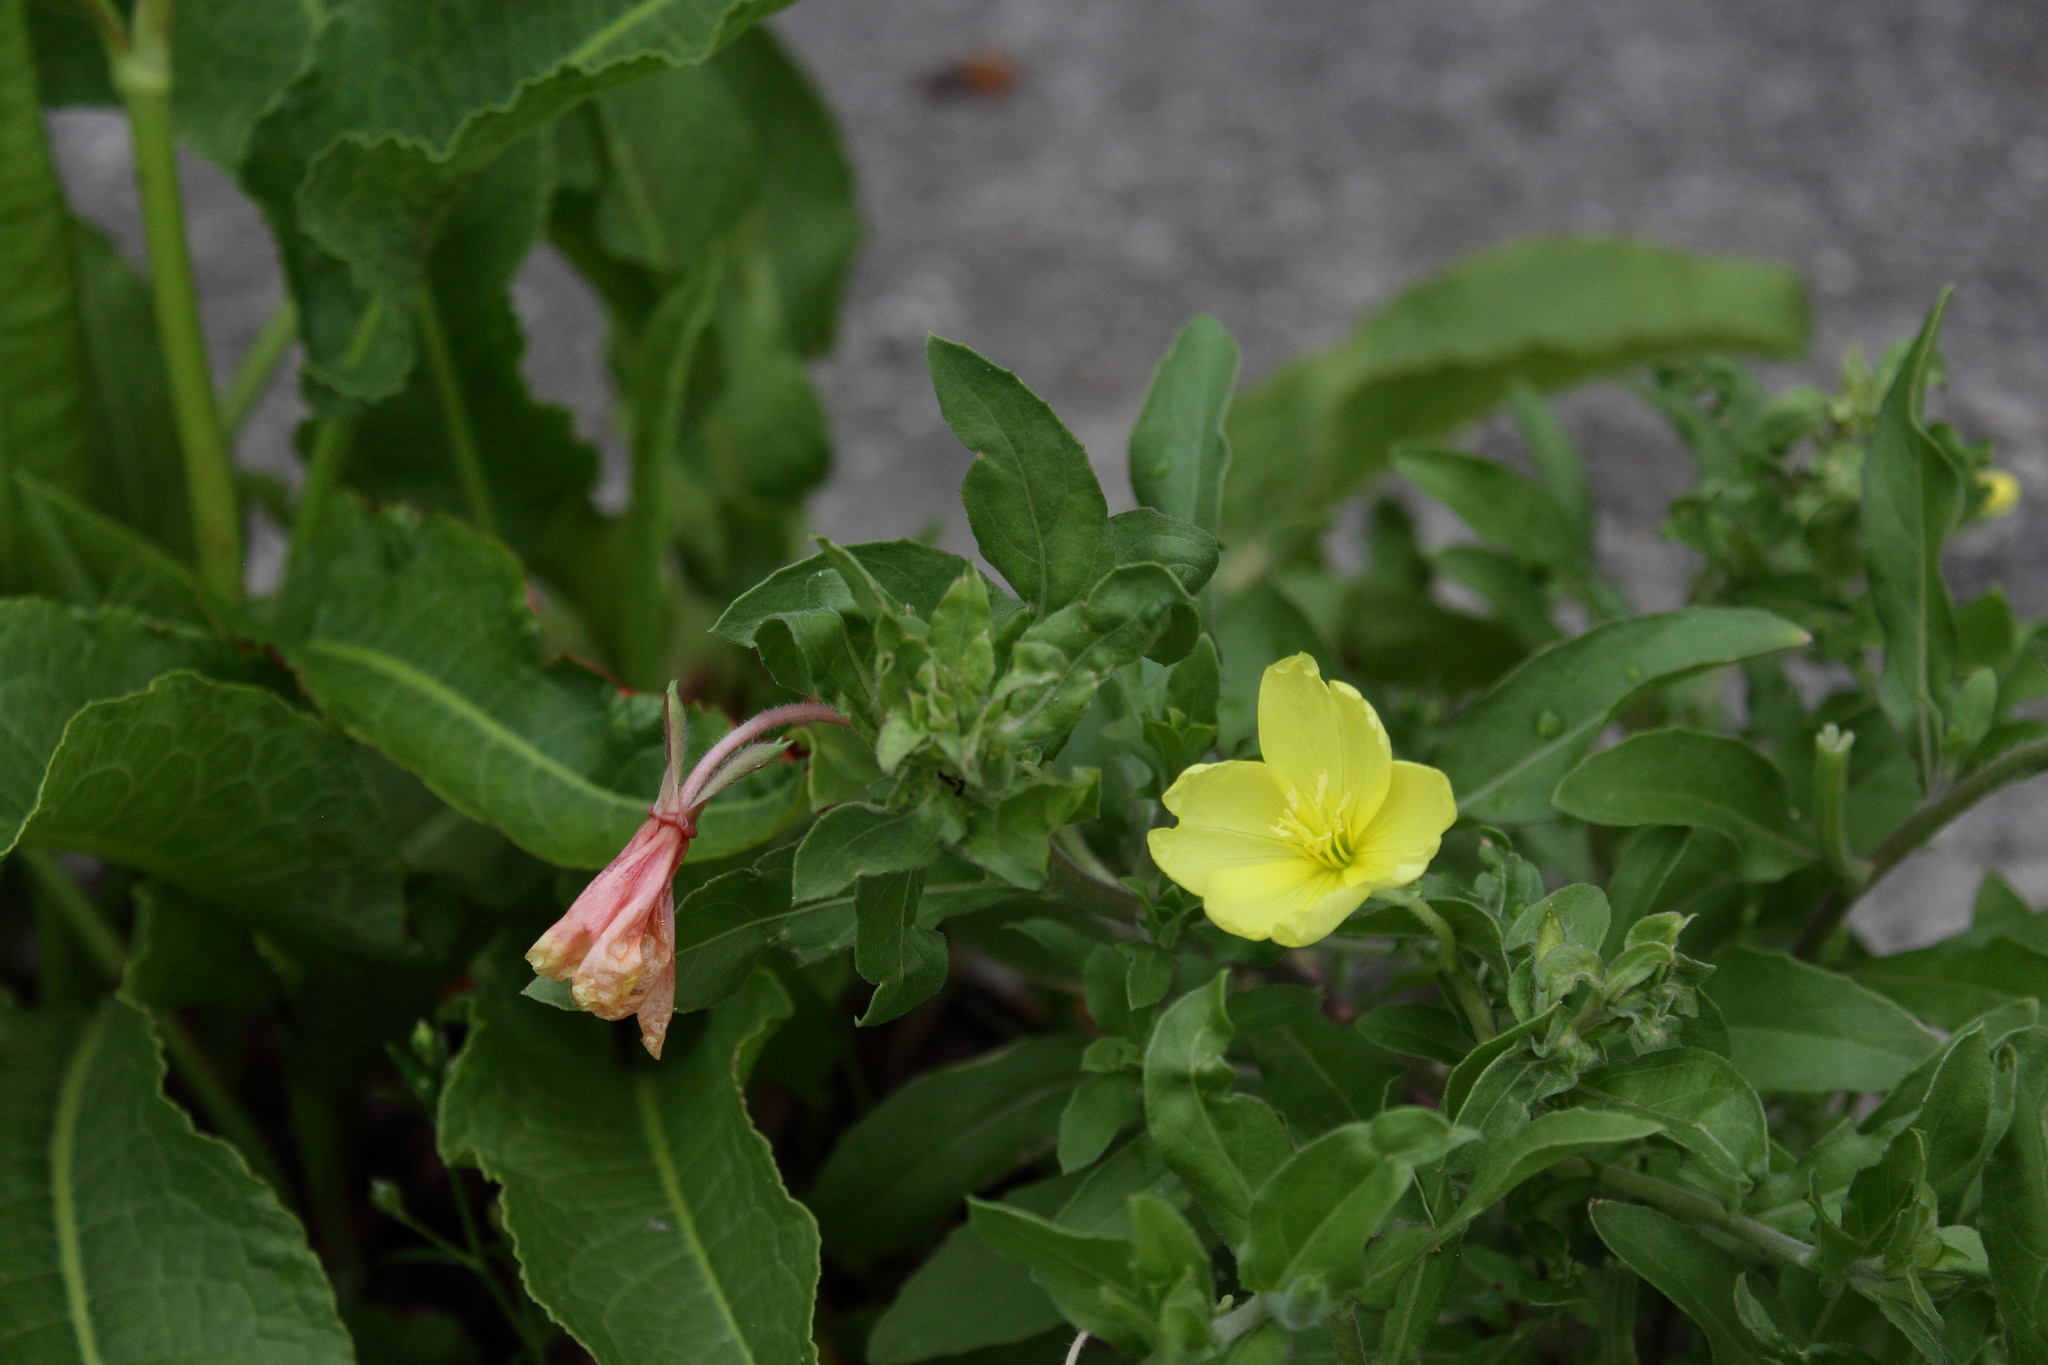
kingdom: Plantae
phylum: Tracheophyta
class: Magnoliopsida
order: Myrtales
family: Onagraceae
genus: Oenothera
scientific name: Oenothera laciniata
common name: Cut-leaved evening-primrose
